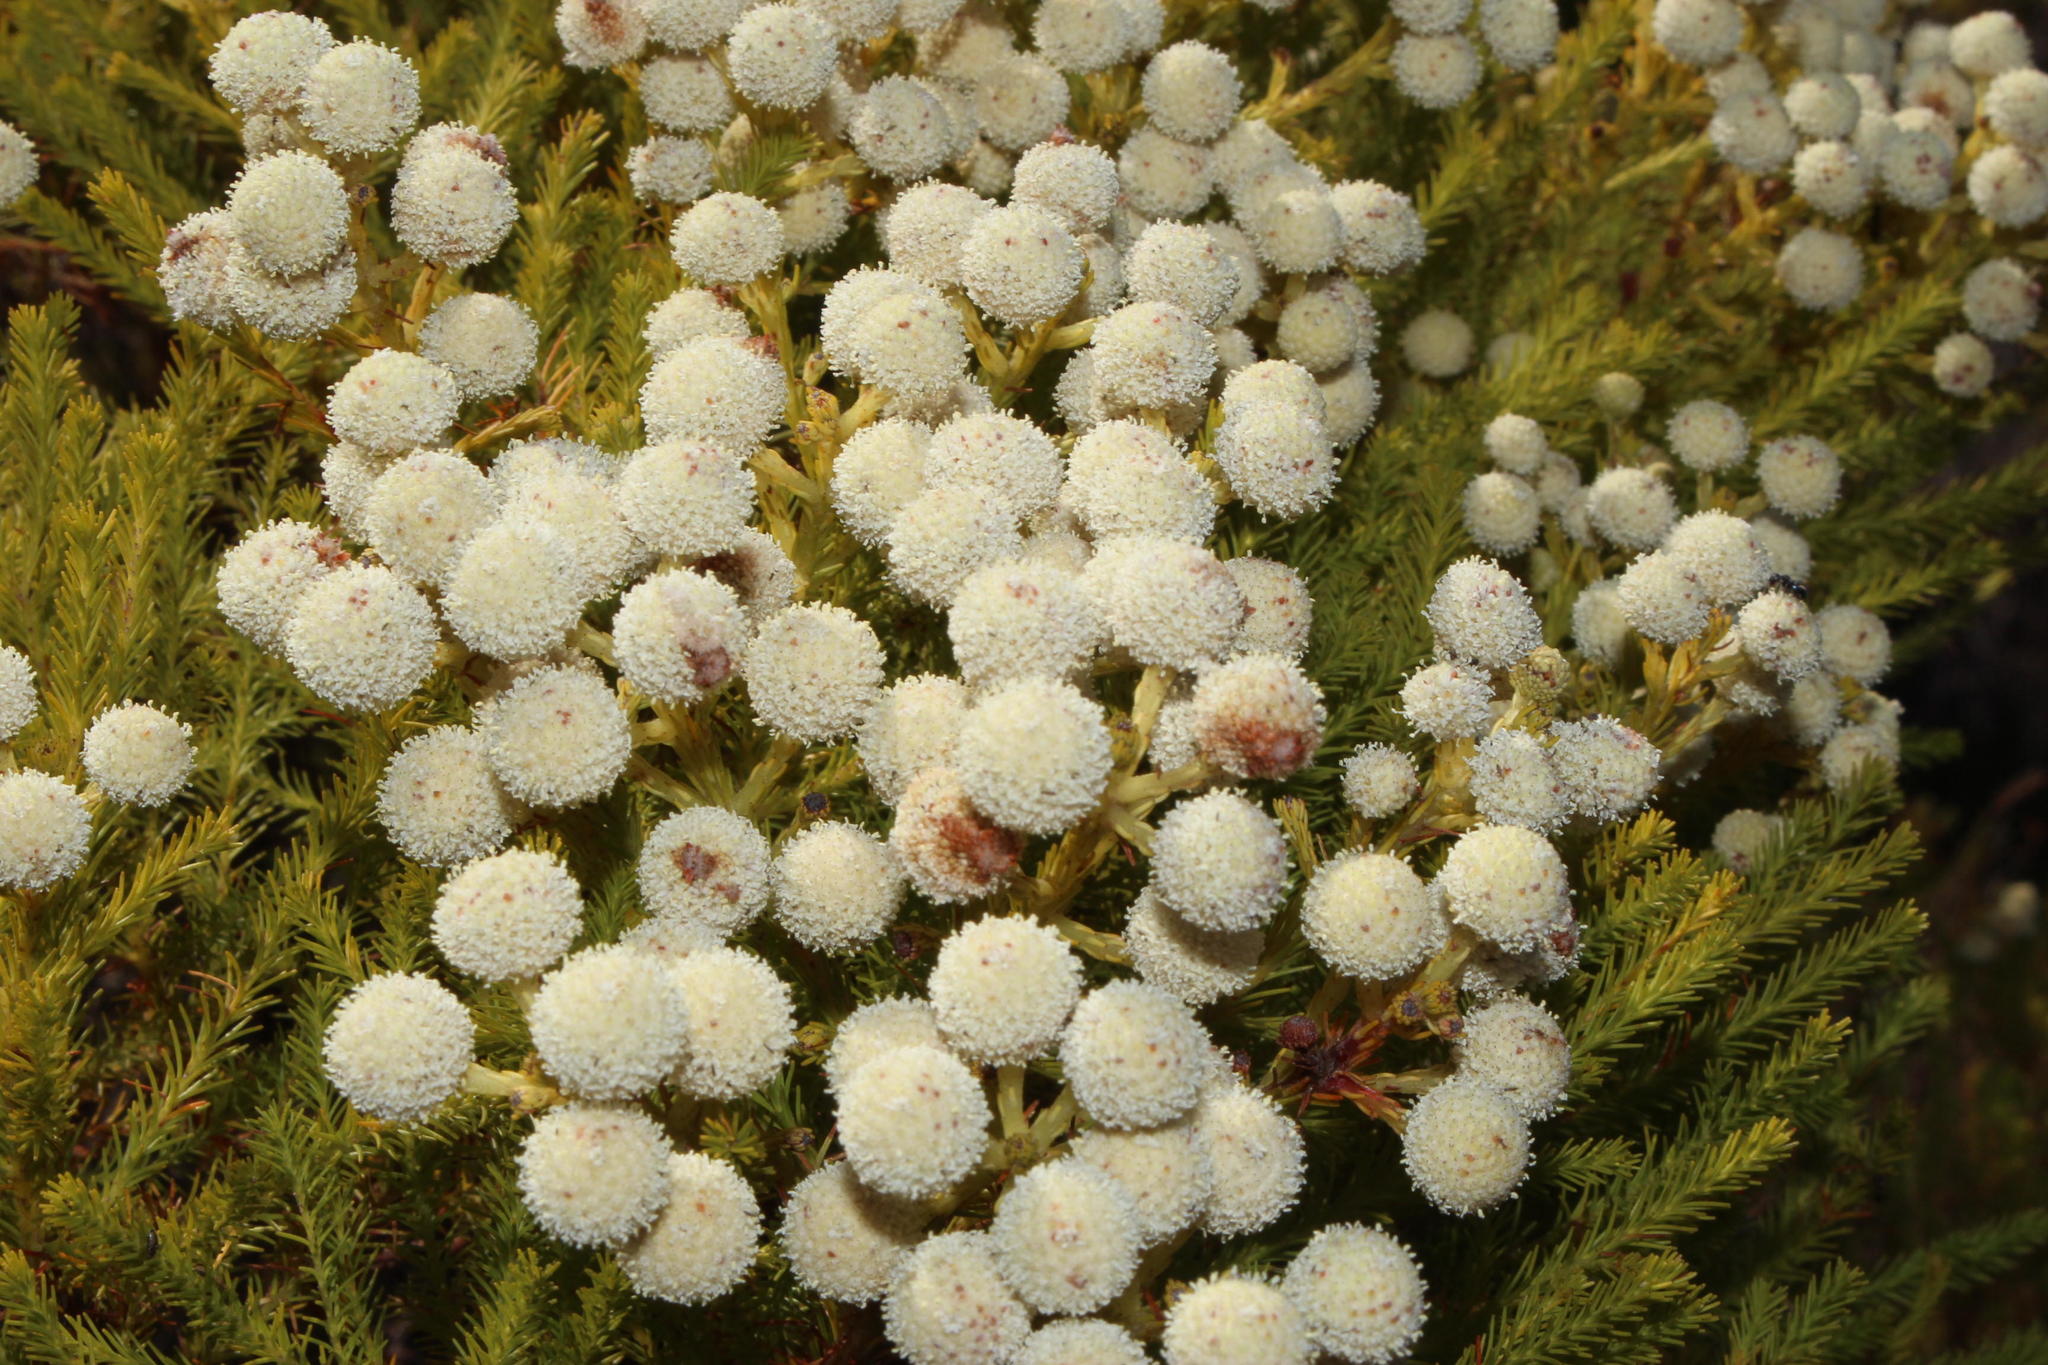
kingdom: Plantae
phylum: Tracheophyta
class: Magnoliopsida
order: Bruniales
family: Bruniaceae
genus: Berzelia
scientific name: Berzelia lanuginosa
